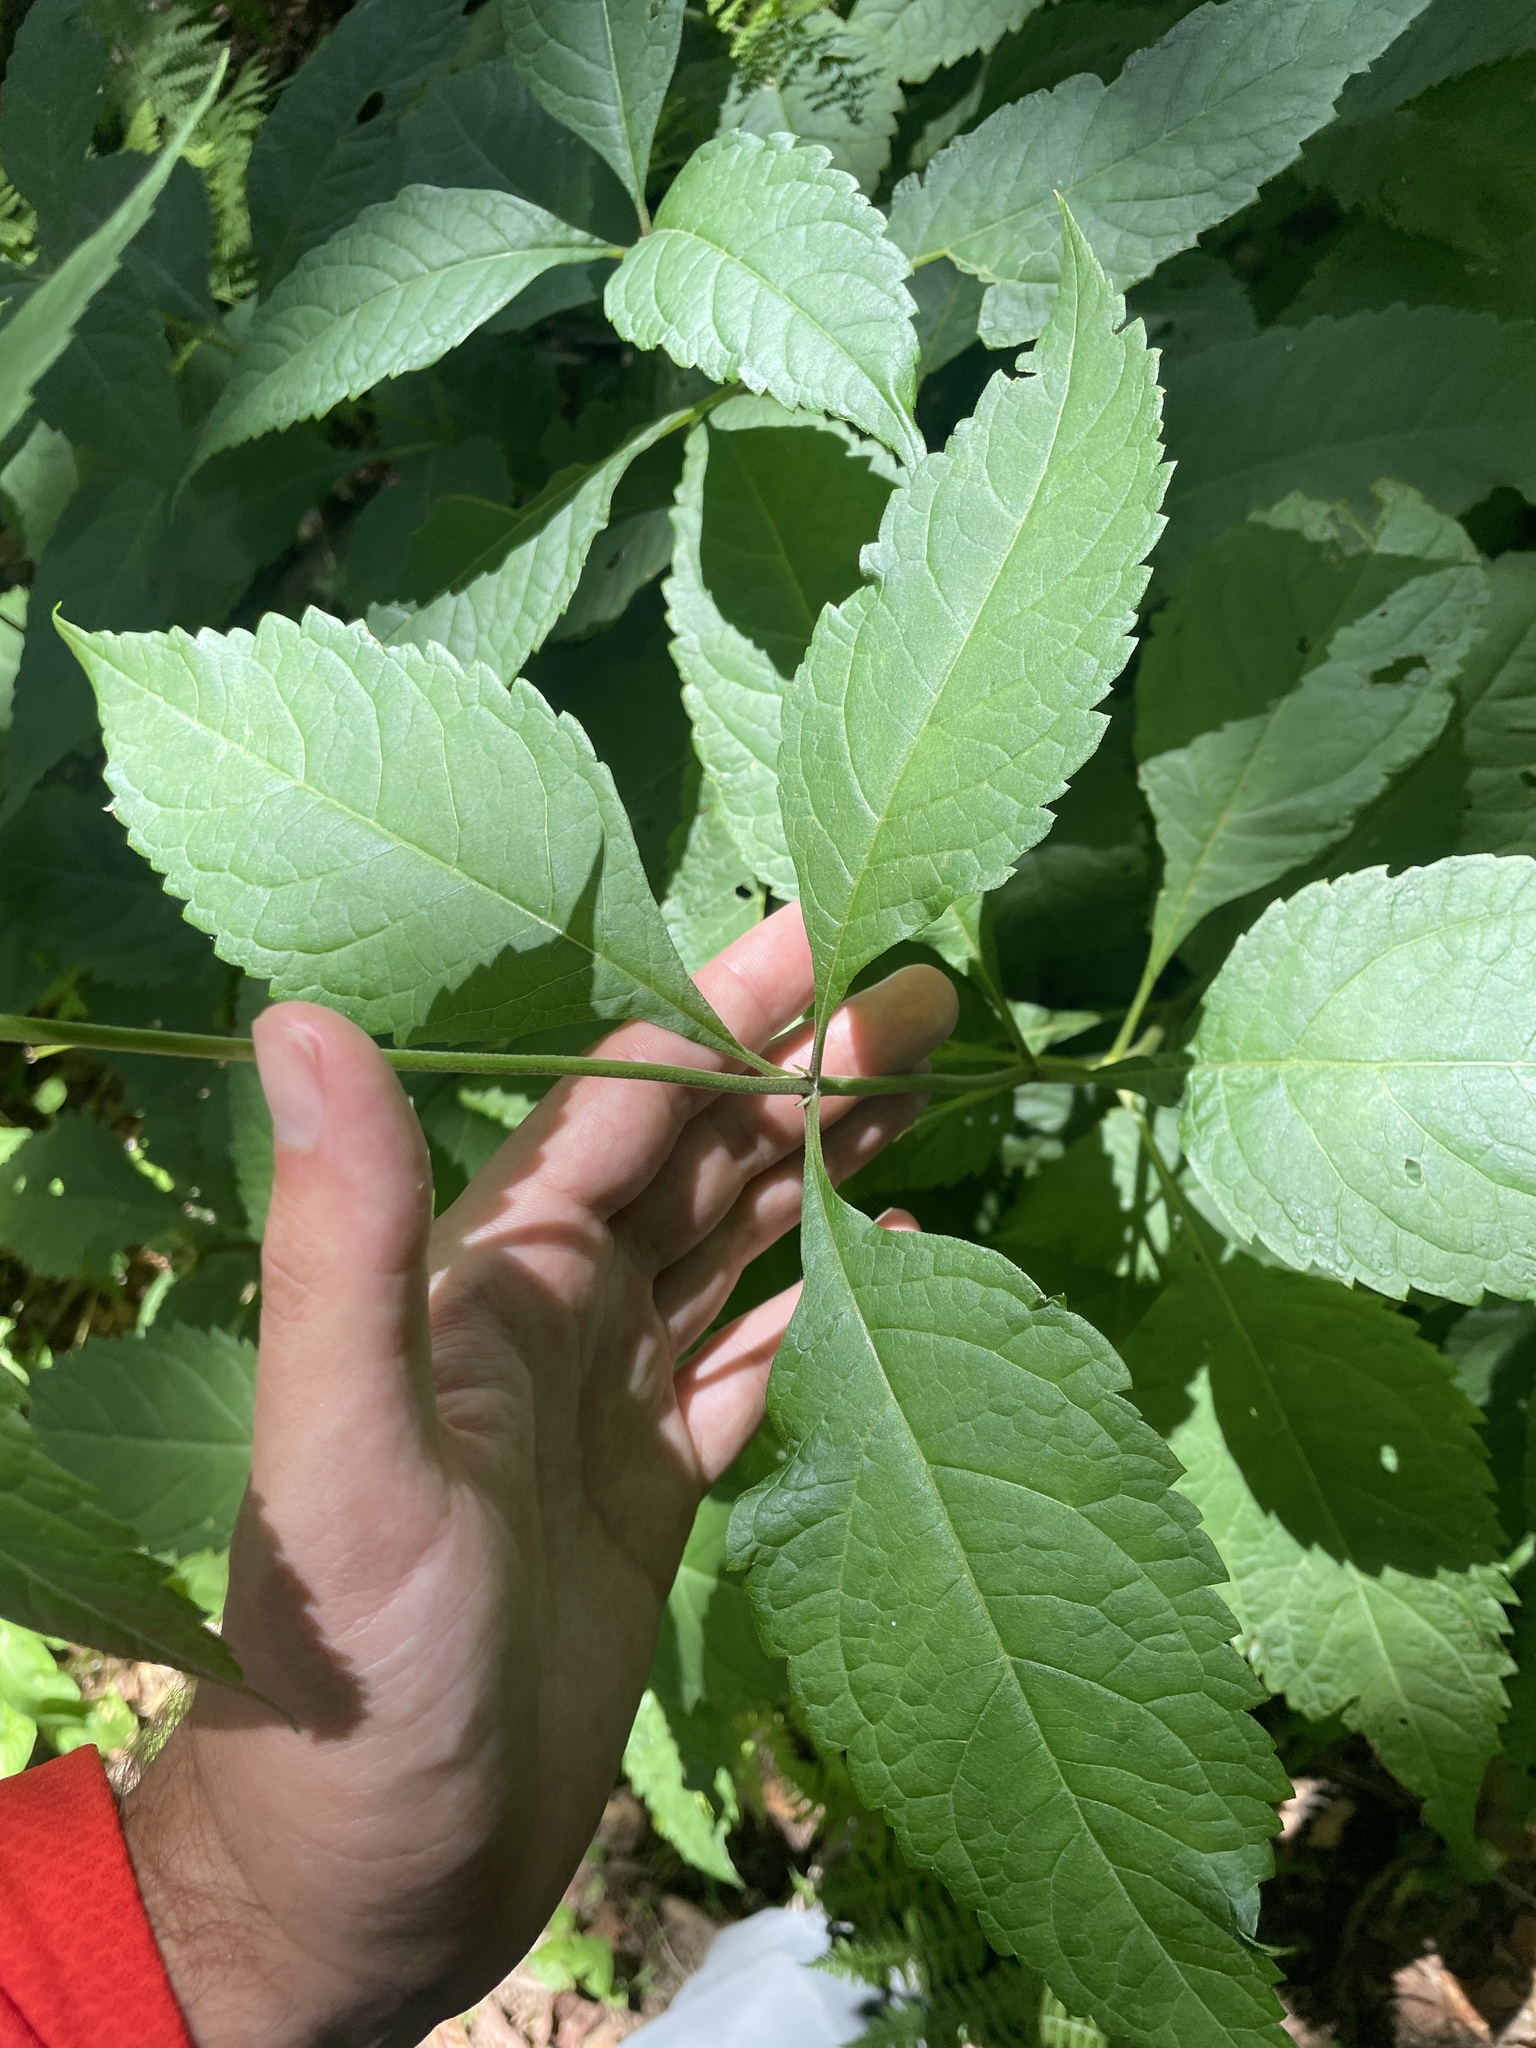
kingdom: Plantae
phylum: Tracheophyta
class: Magnoliopsida
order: Asterales
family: Asteraceae
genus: Eutrochium
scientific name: Eutrochium steelei
